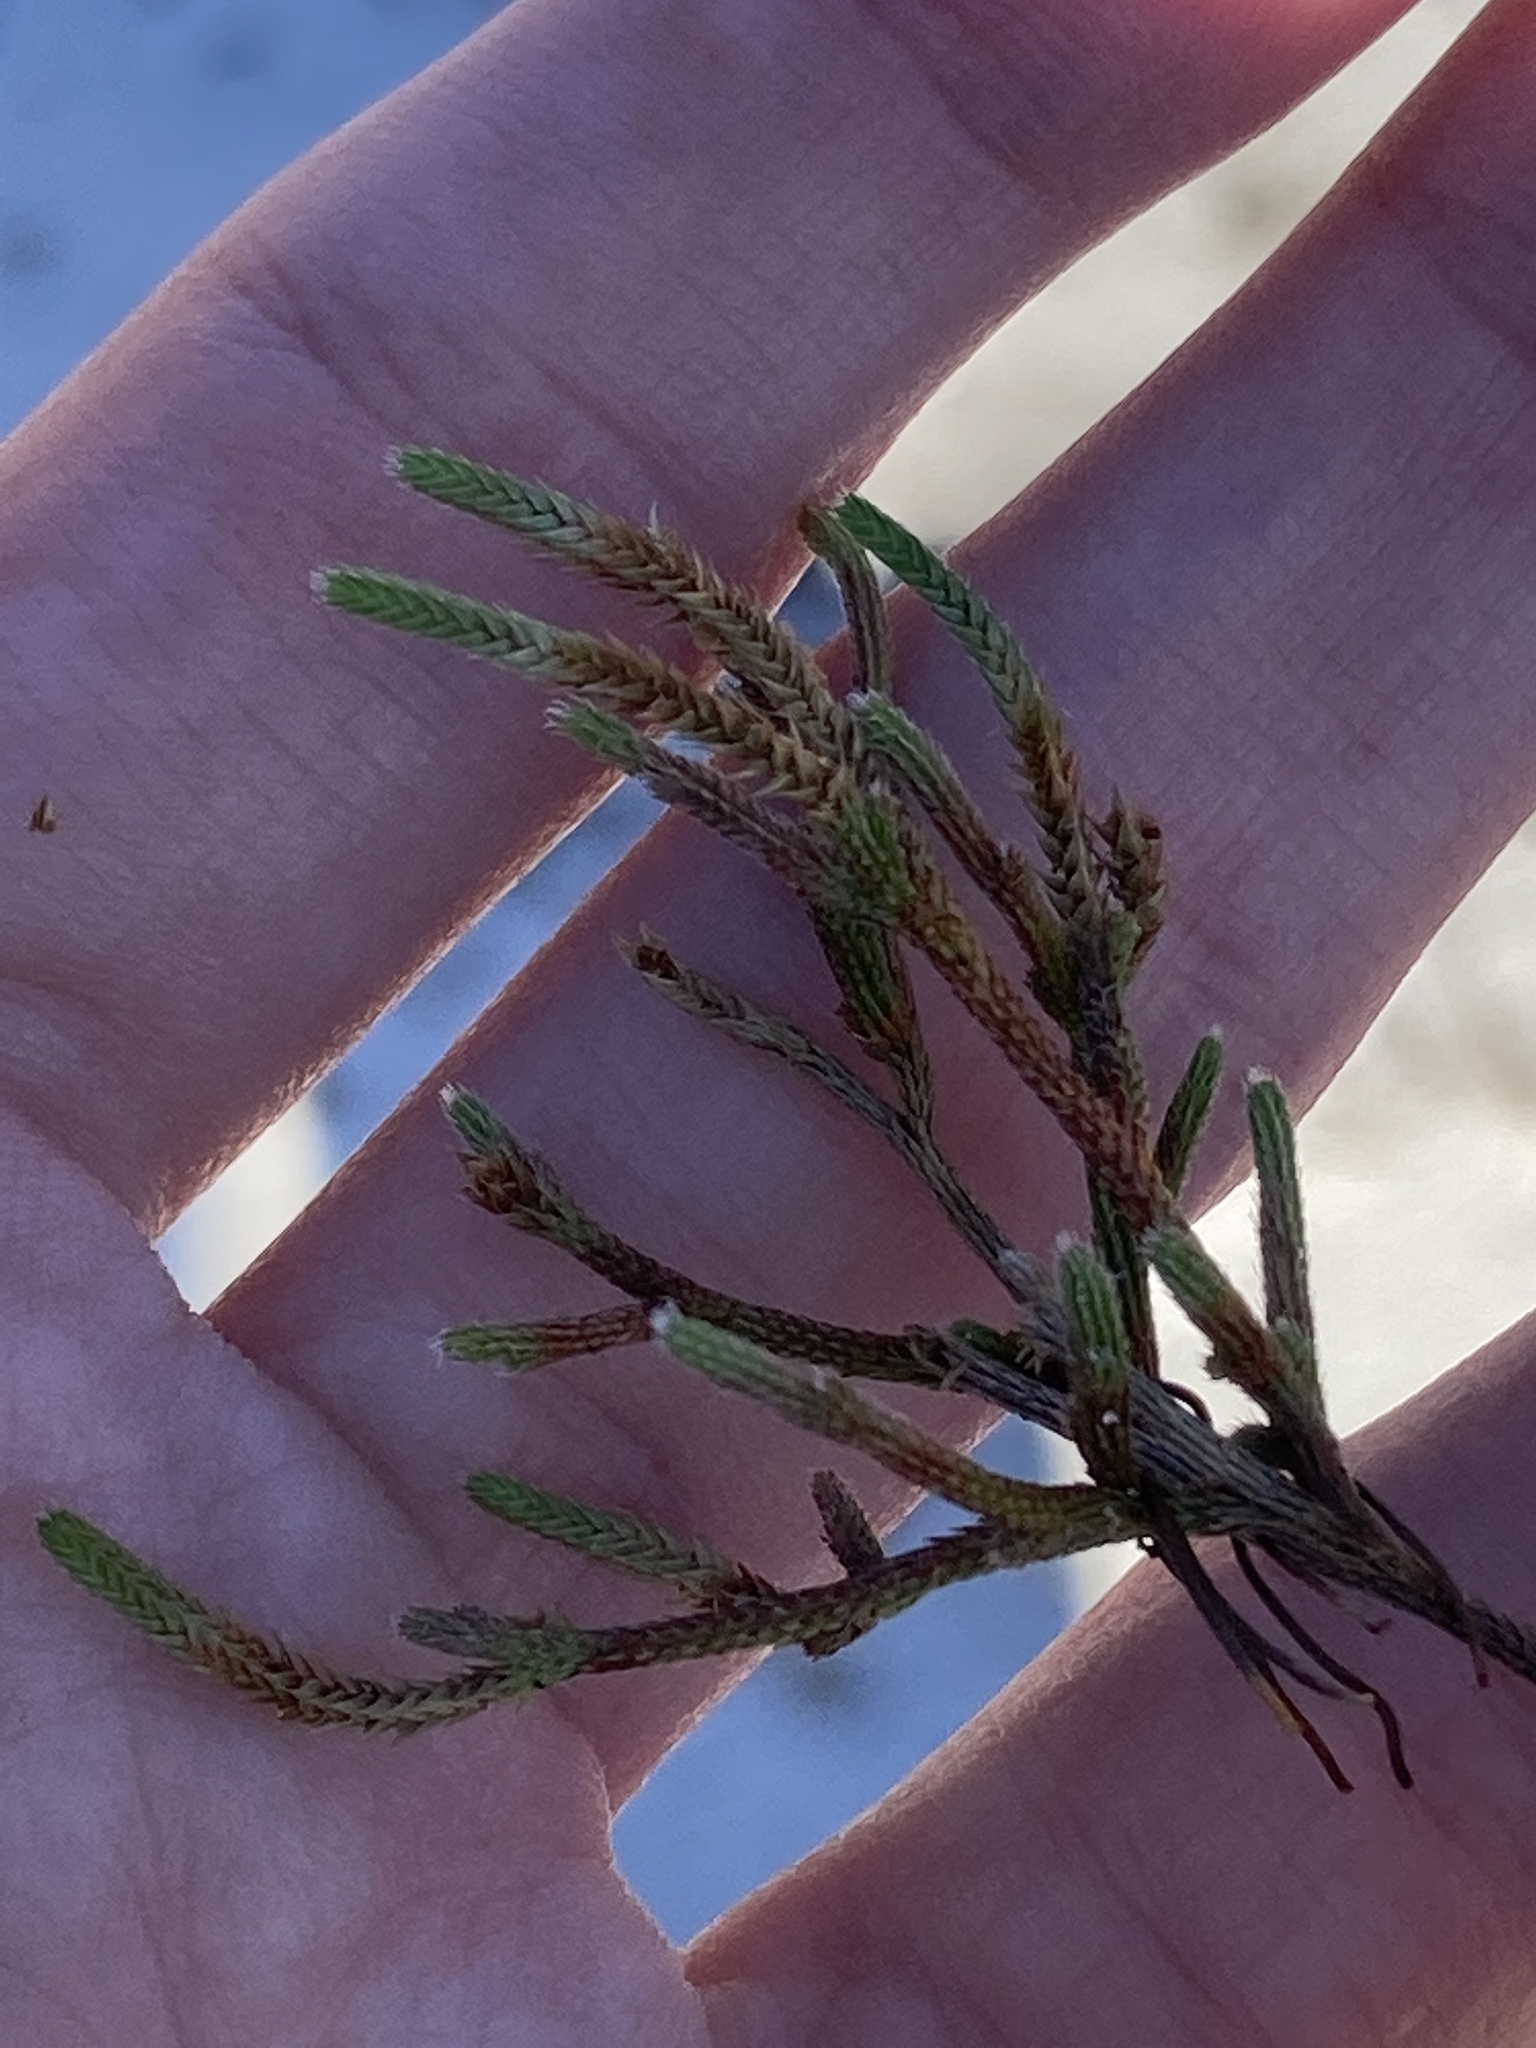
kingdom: Plantae
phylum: Tracheophyta
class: Lycopodiopsida
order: Selaginellales
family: Selaginellaceae
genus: Selaginella
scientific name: Selaginella arenicola
